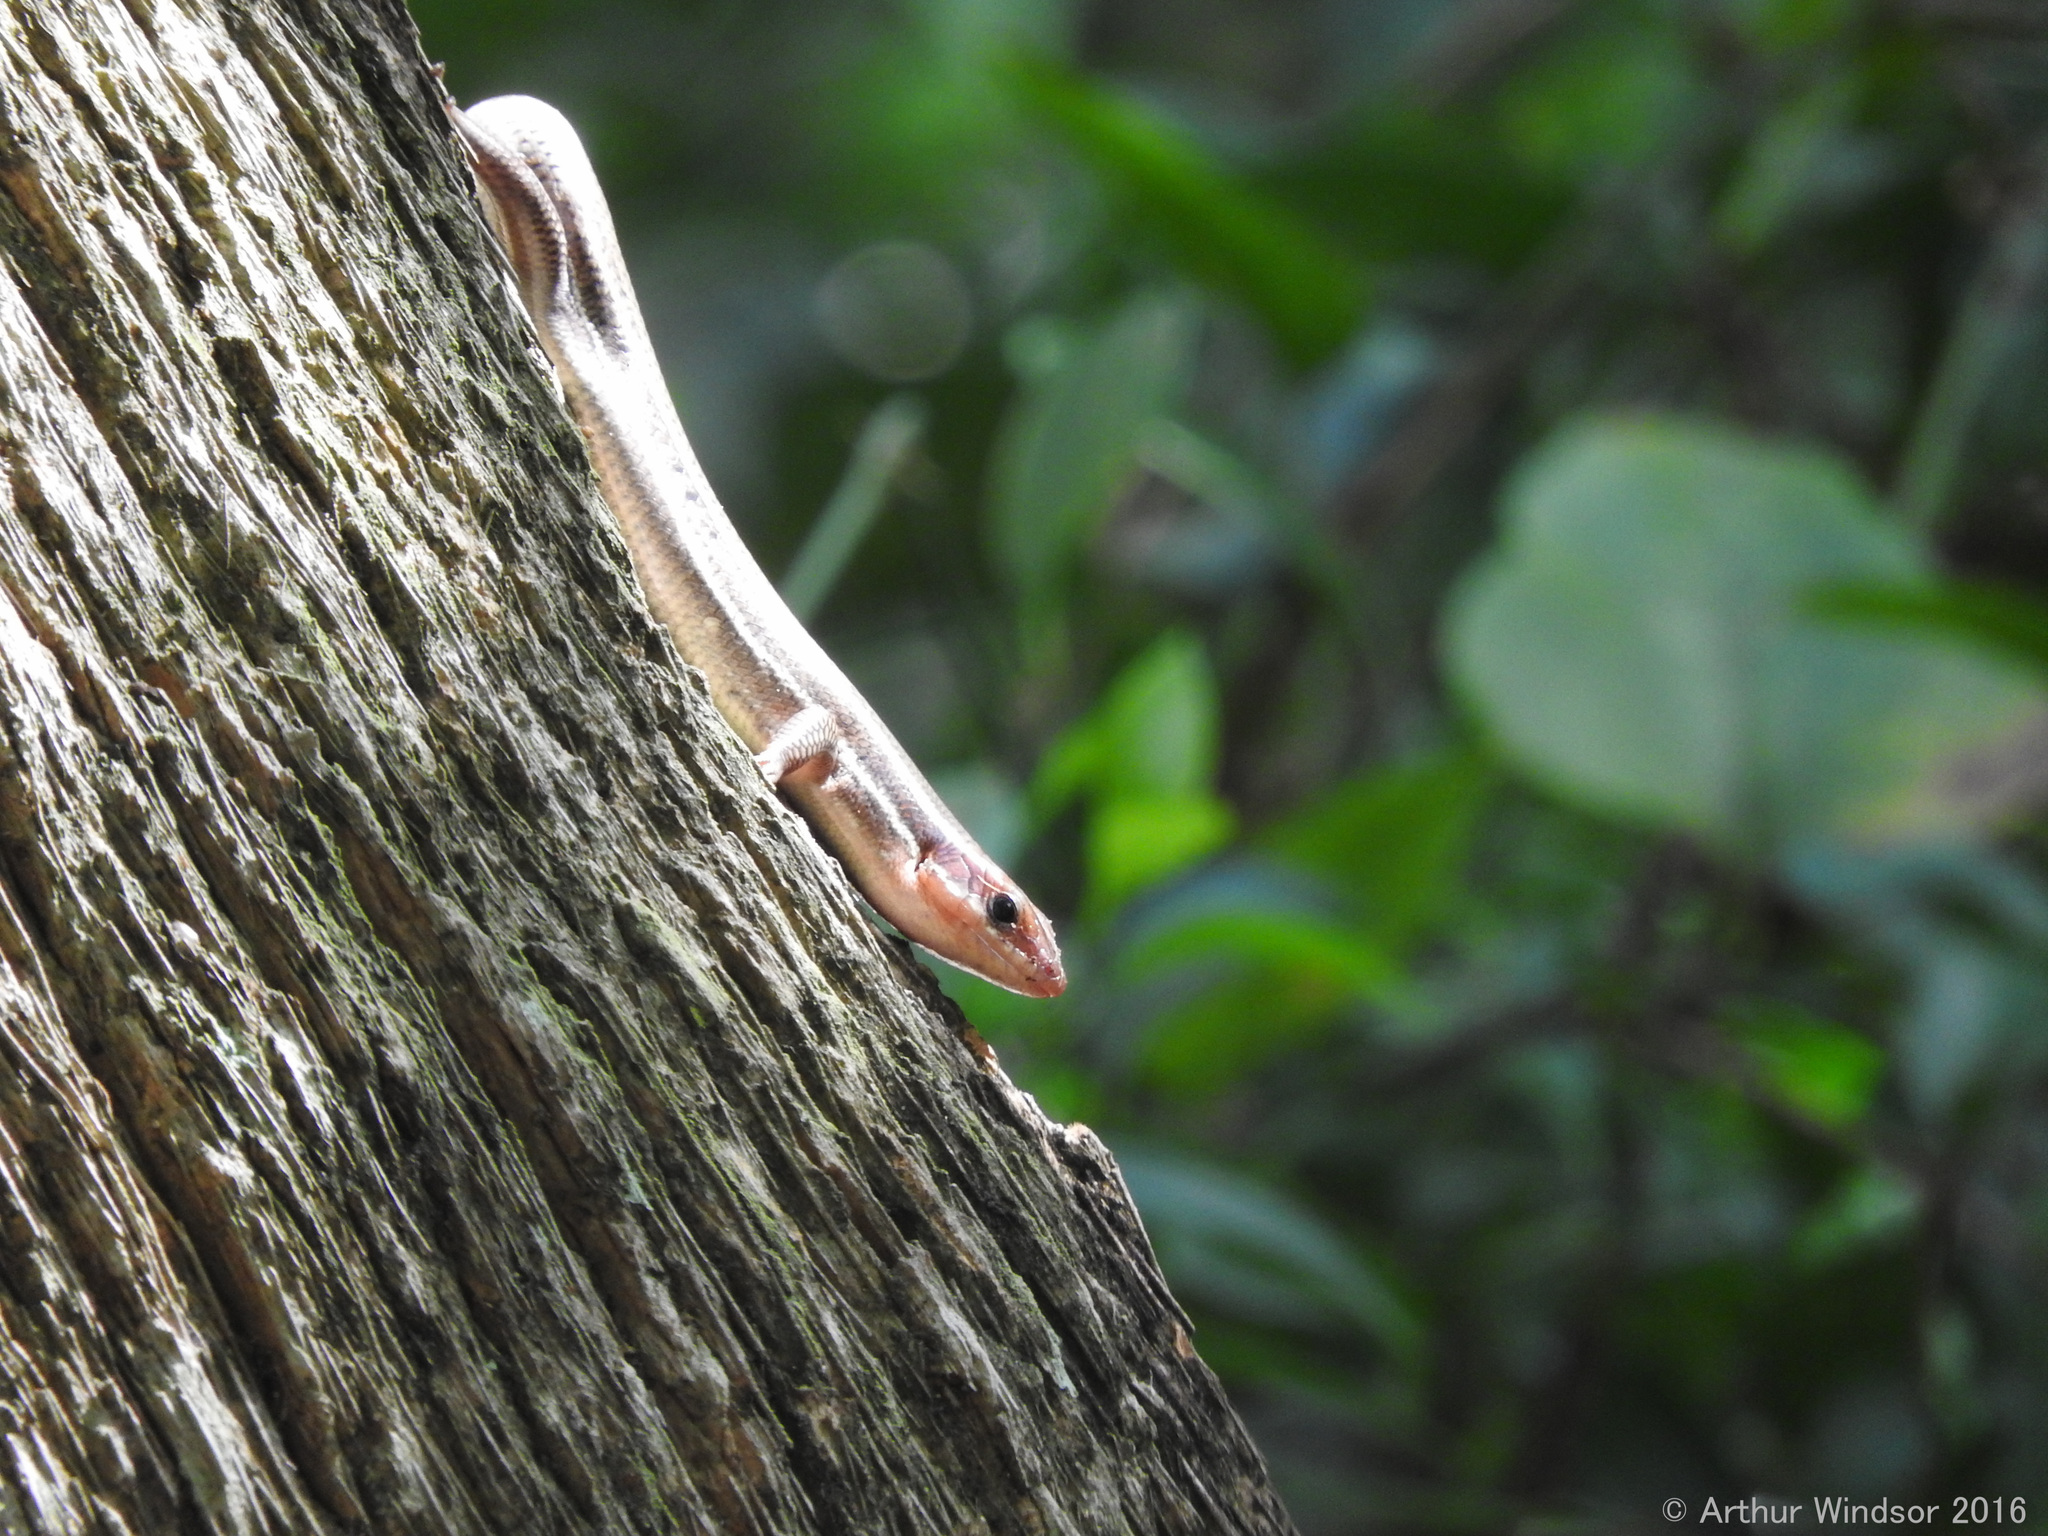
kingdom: Animalia
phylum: Chordata
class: Squamata
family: Scincidae
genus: Plestiodon
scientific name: Plestiodon inexpectatus
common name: Southeastern five-lined skink
